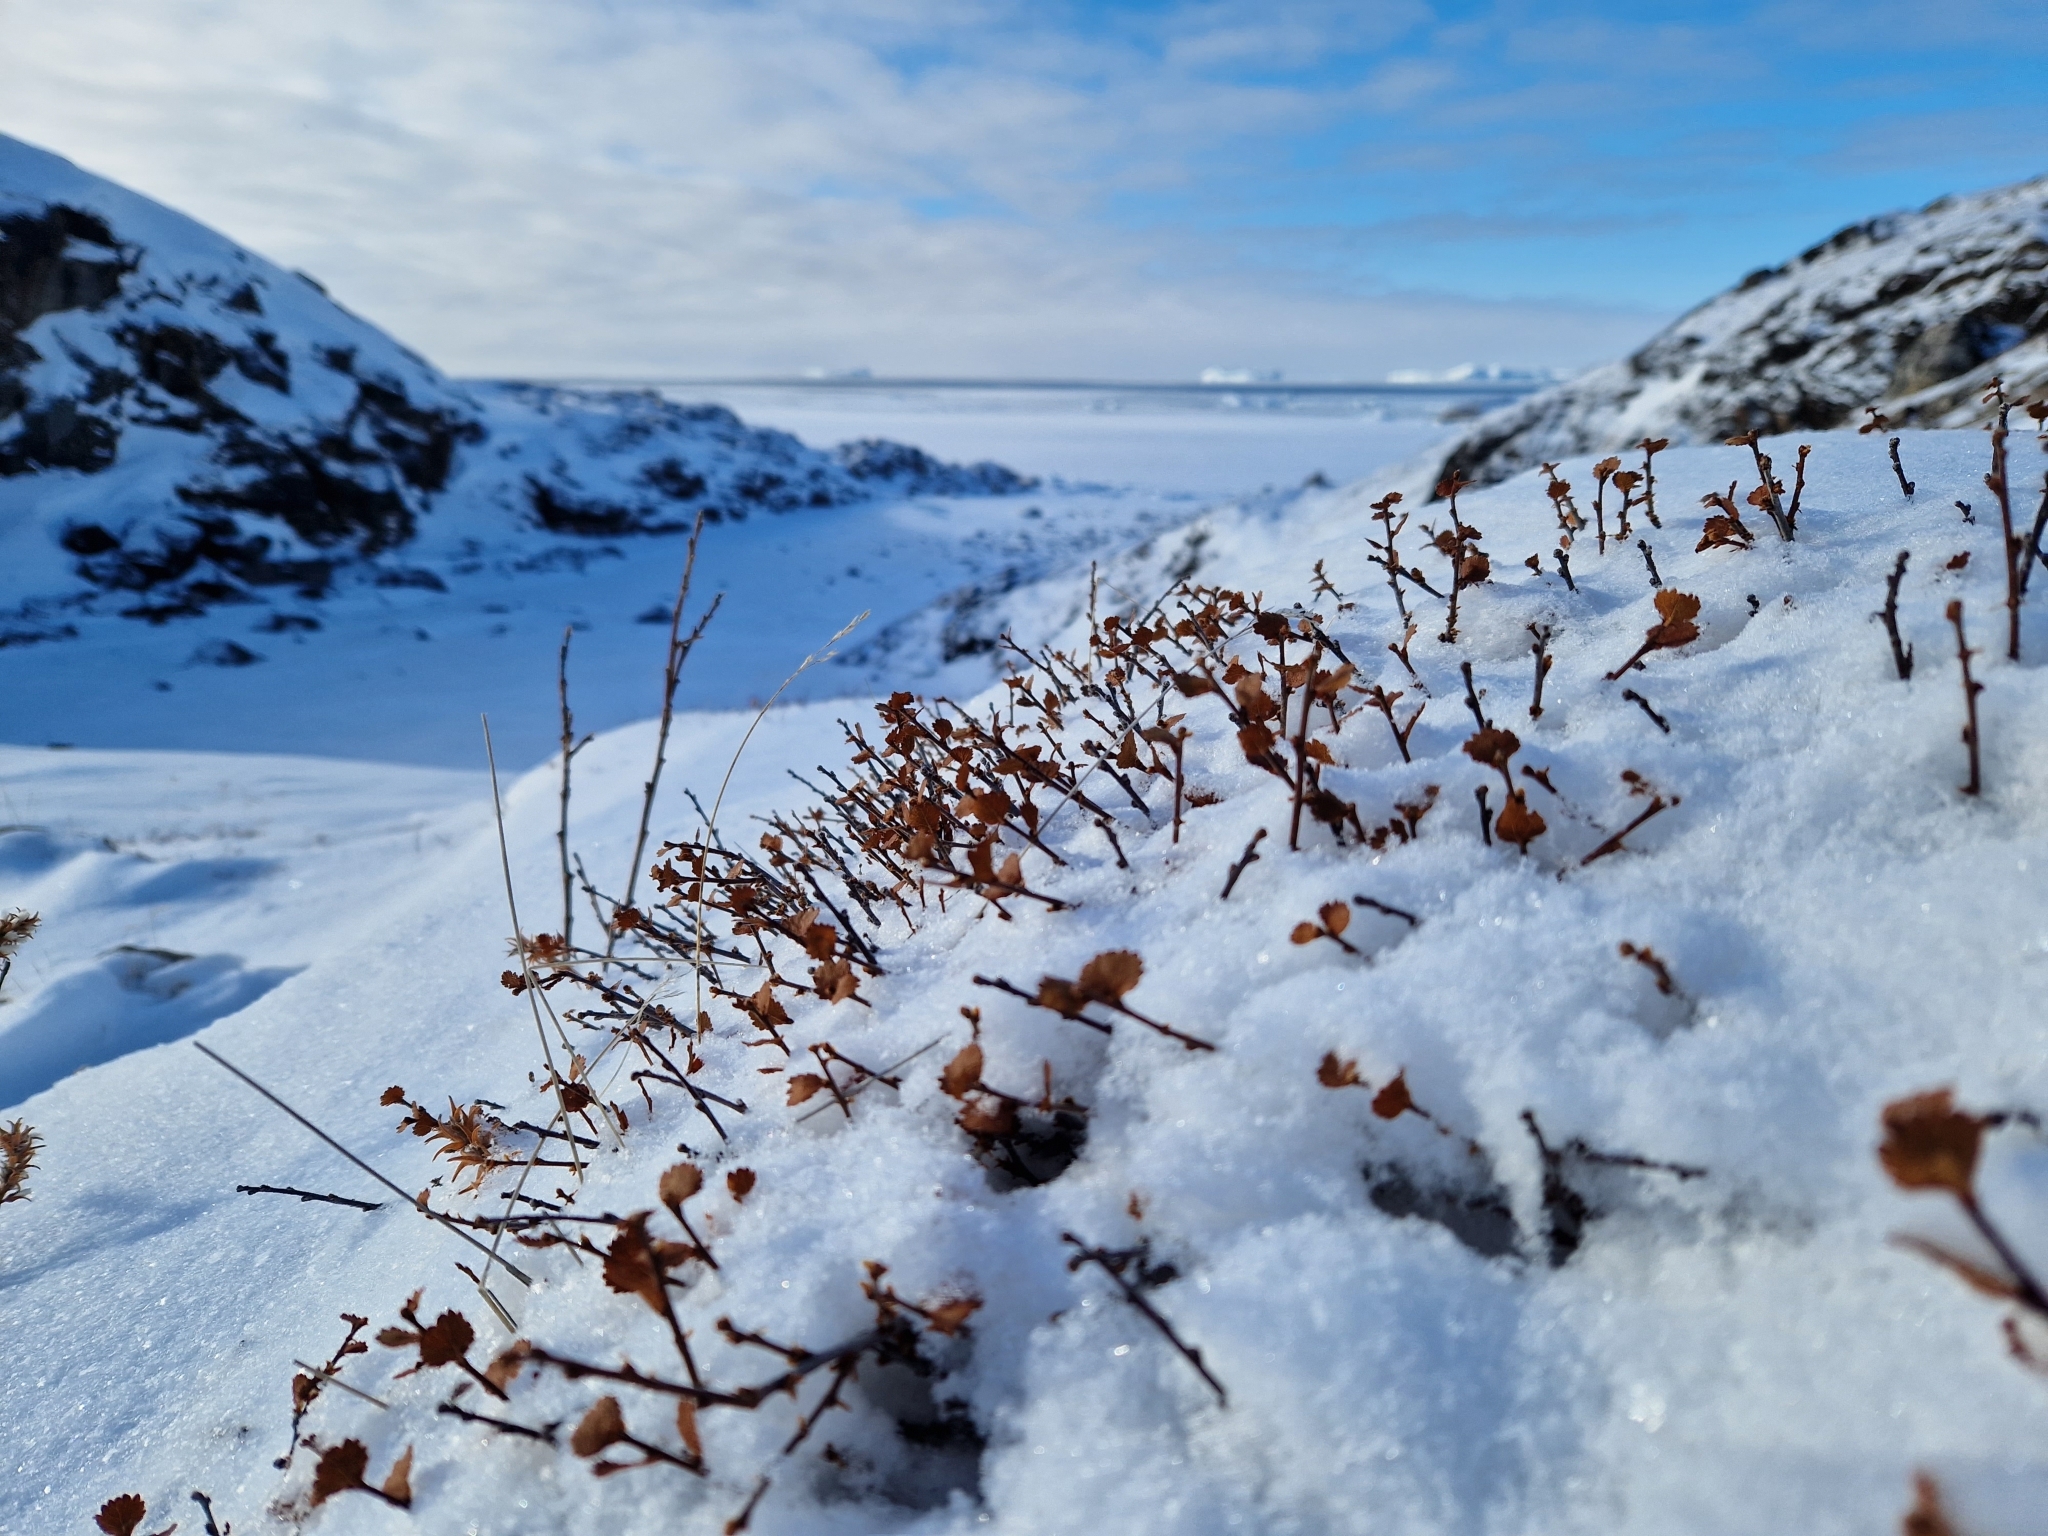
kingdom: Plantae
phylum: Tracheophyta
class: Magnoliopsida
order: Fagales
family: Betulaceae
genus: Betula
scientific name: Betula nana
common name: Arctic dwarf birch
